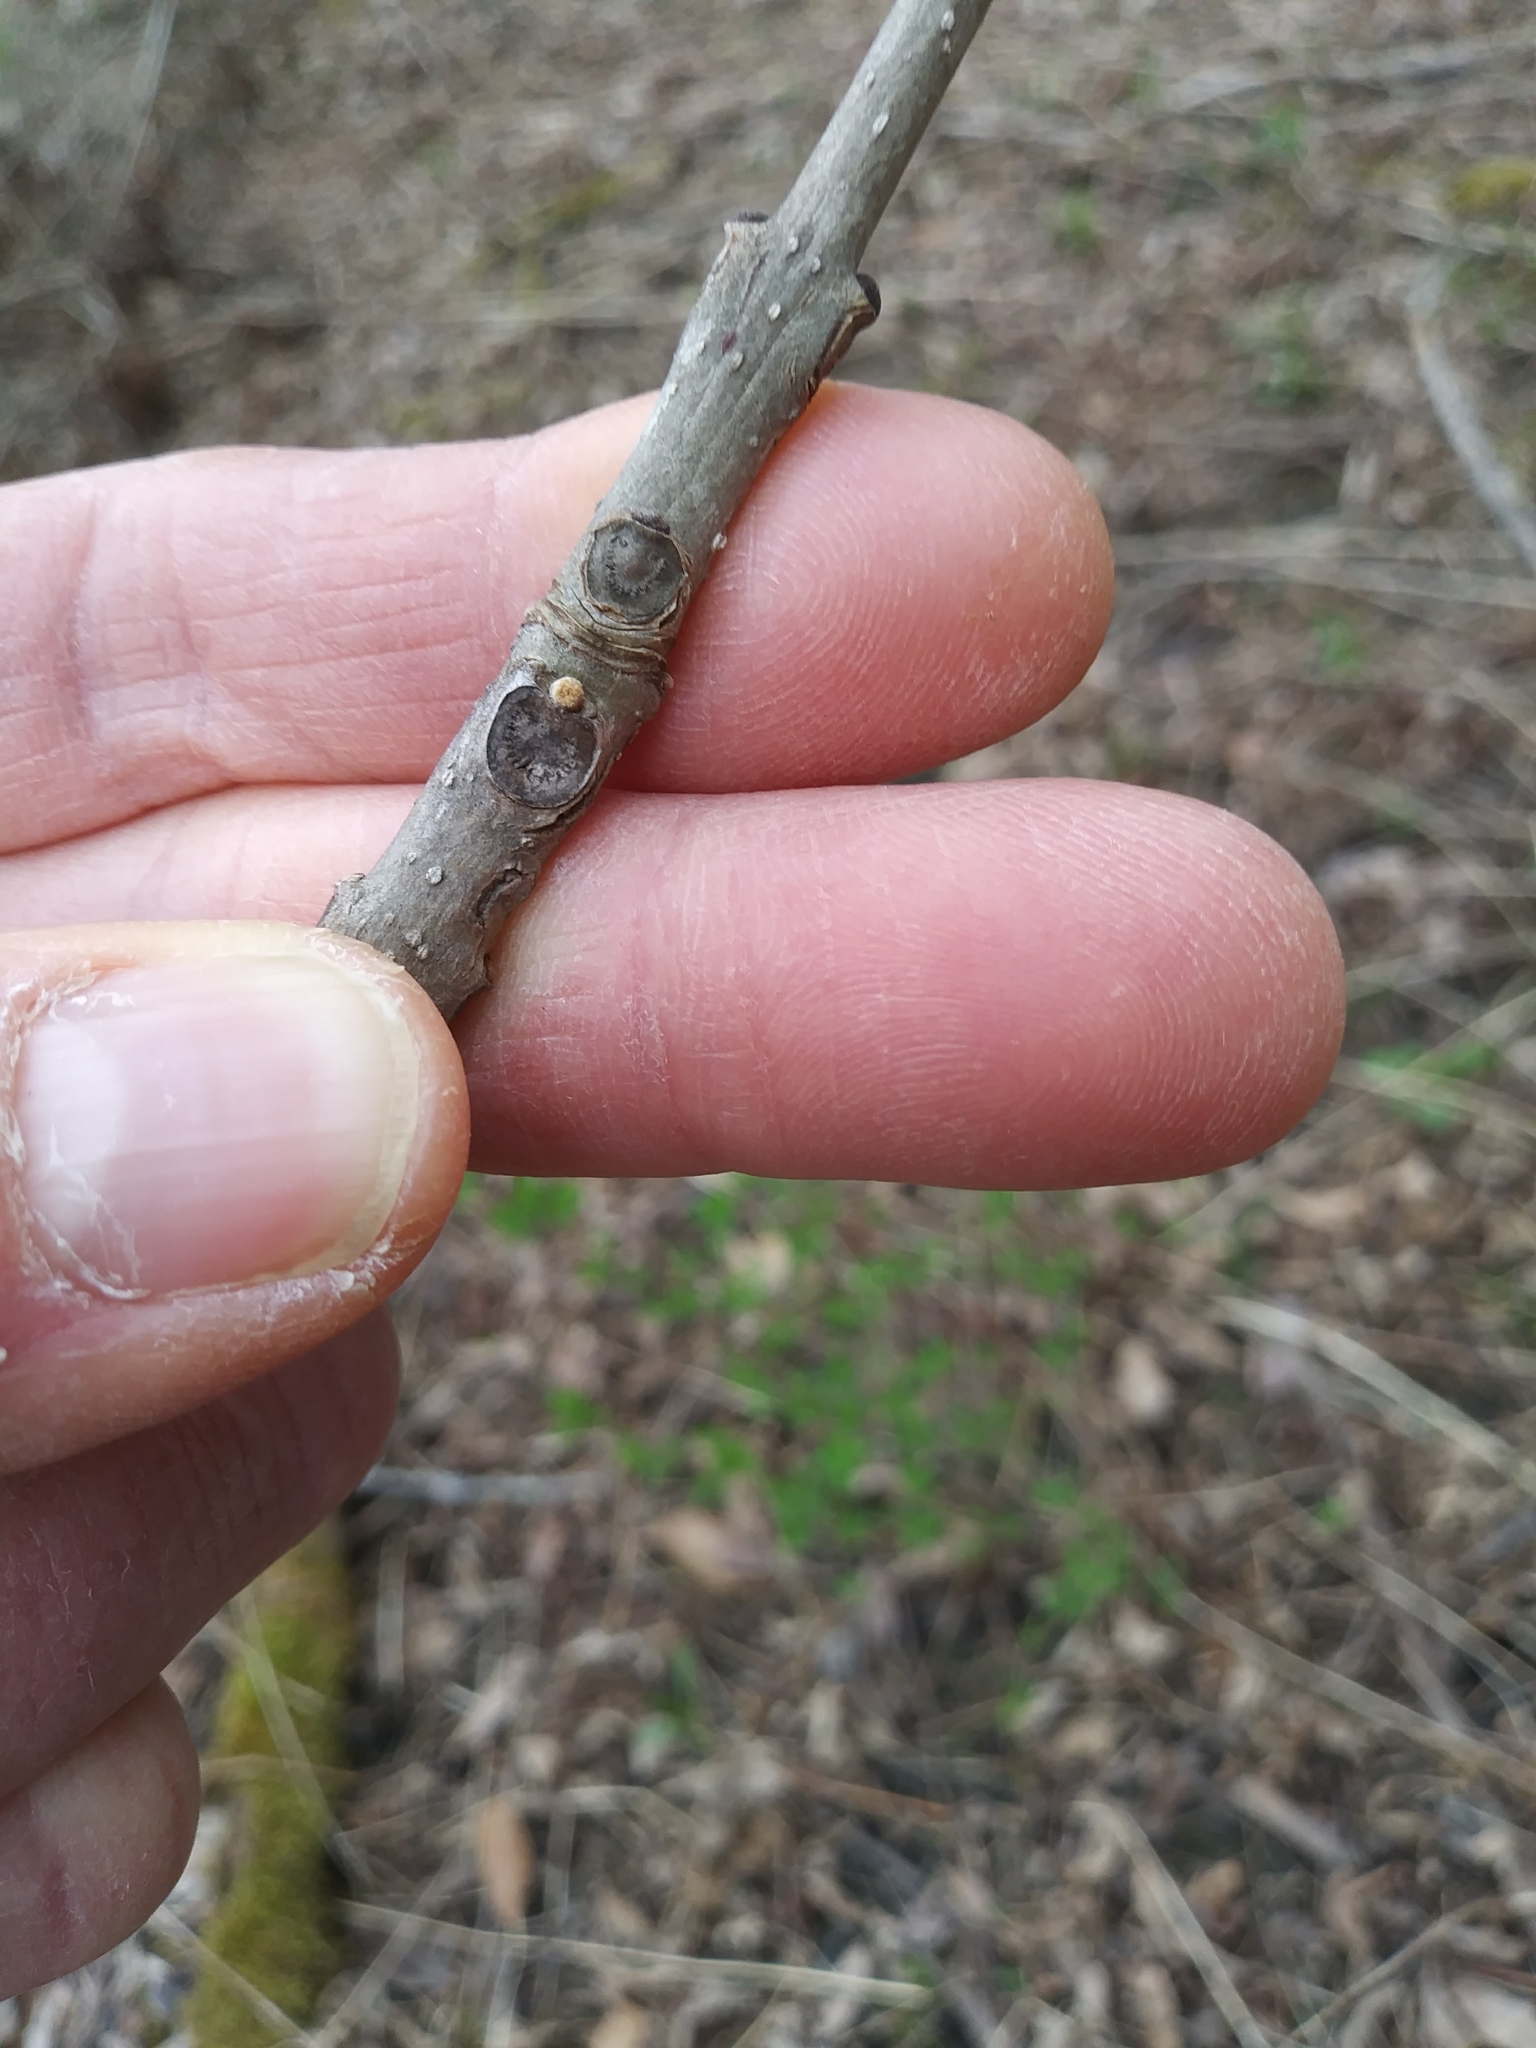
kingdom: Plantae
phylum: Tracheophyta
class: Magnoliopsida
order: Lamiales
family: Oleaceae
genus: Fraxinus
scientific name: Fraxinus nigra
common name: Black ash
